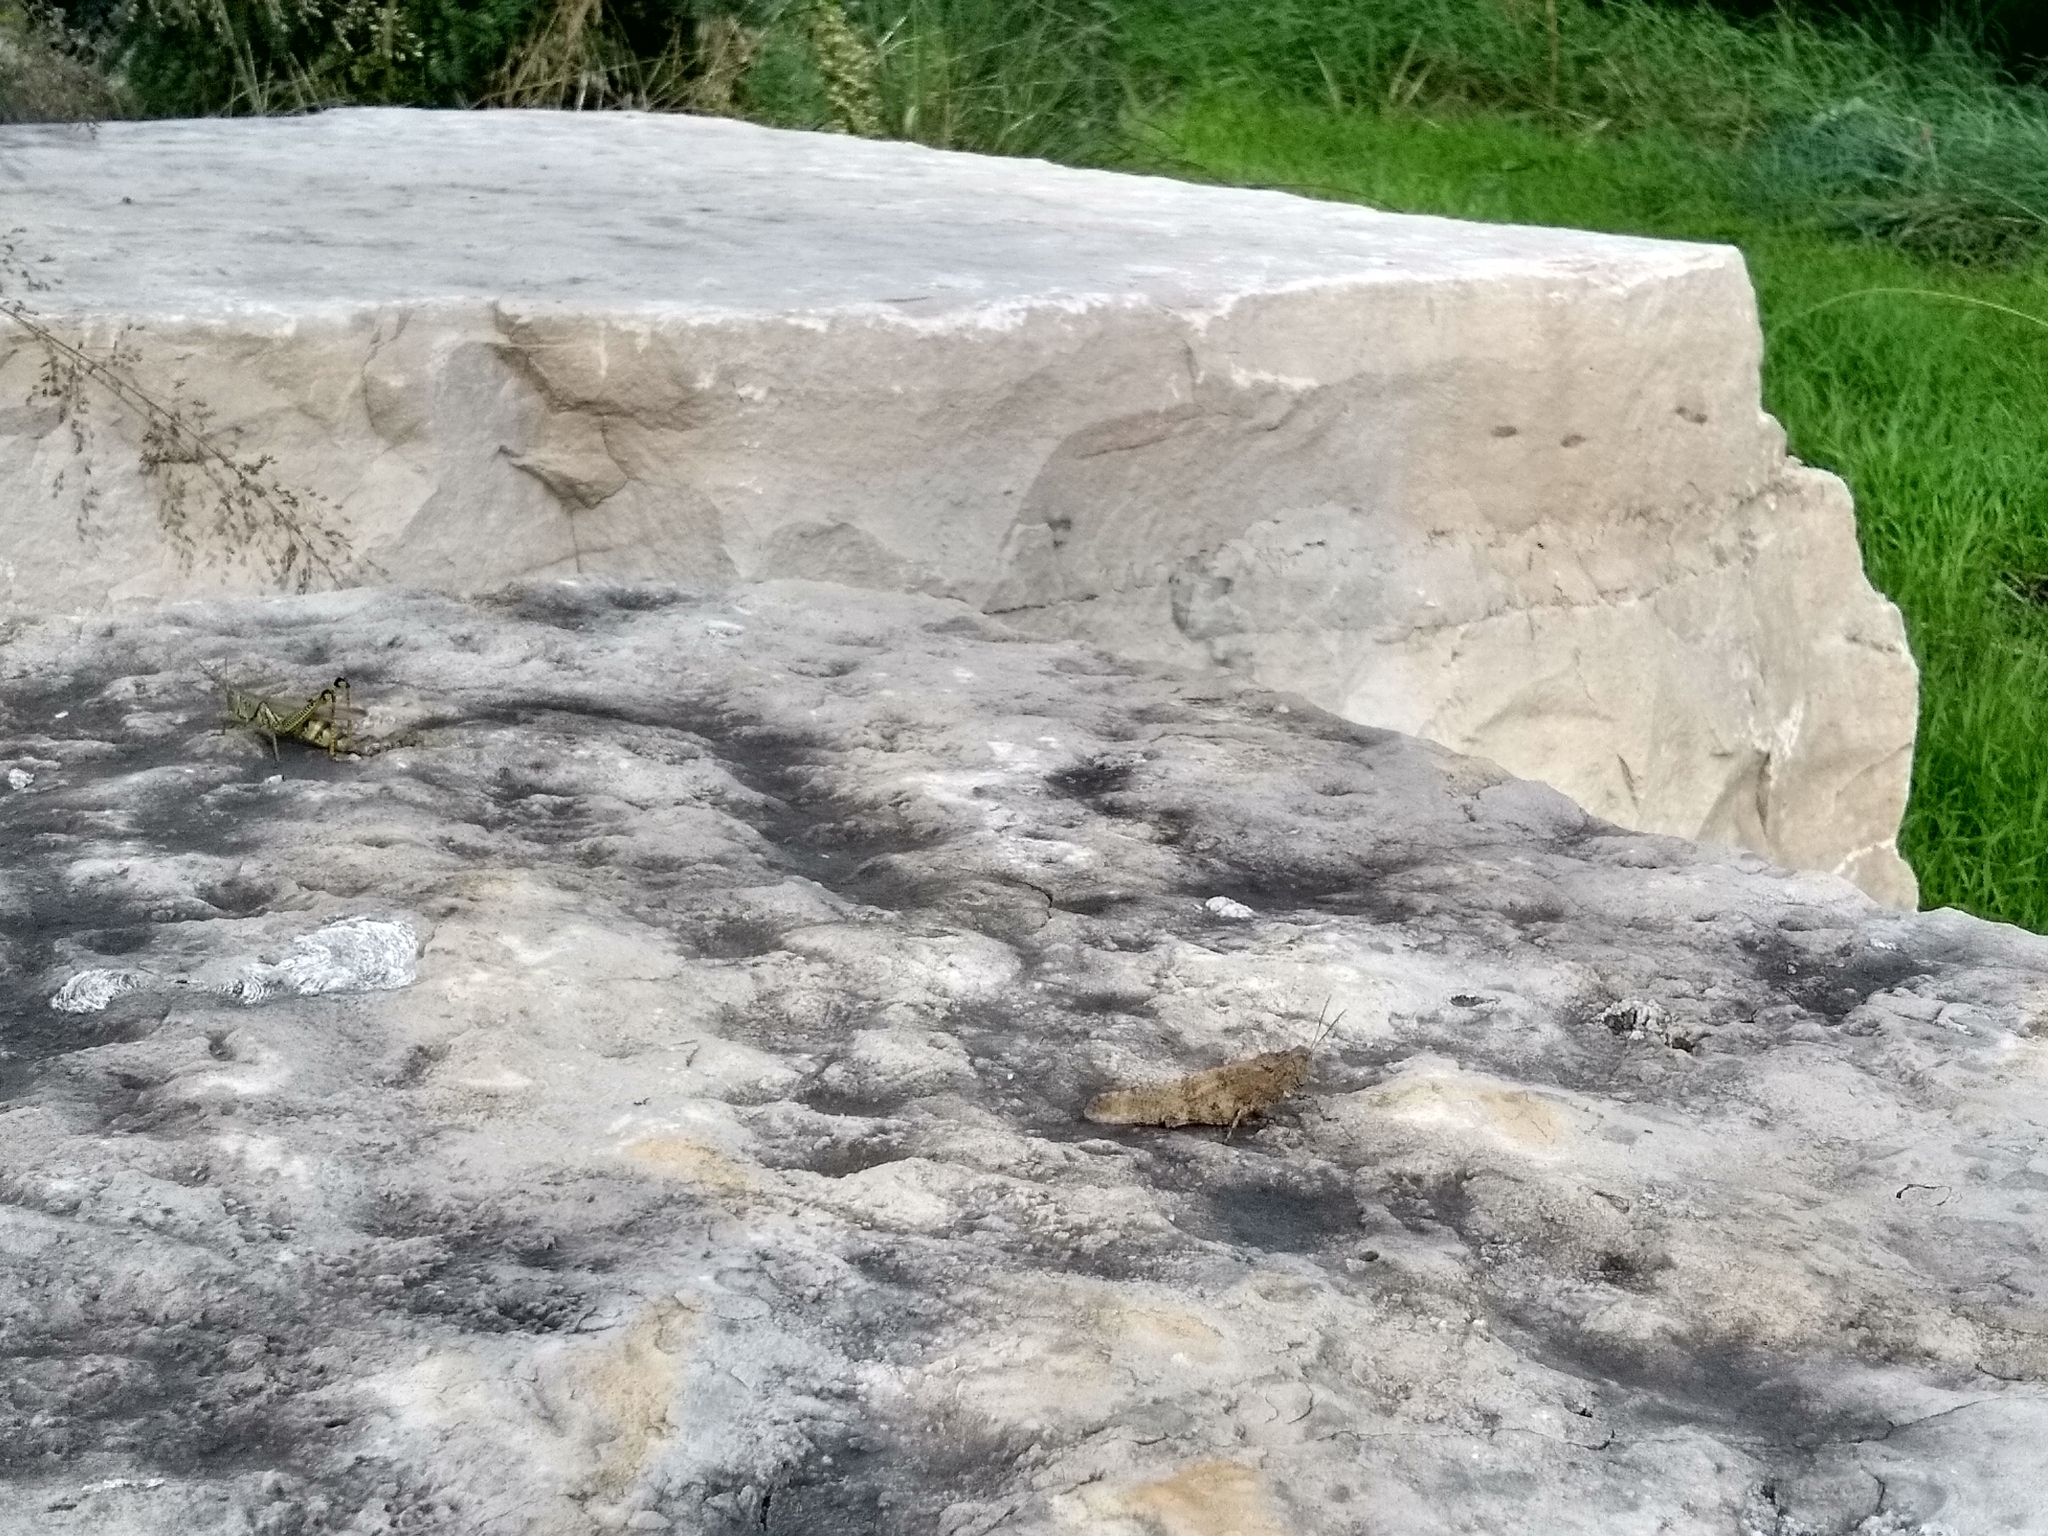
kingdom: Animalia
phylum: Arthropoda
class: Insecta
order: Orthoptera
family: Acrididae
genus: Dissosteira
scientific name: Dissosteira carolina
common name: Carolina grasshopper
